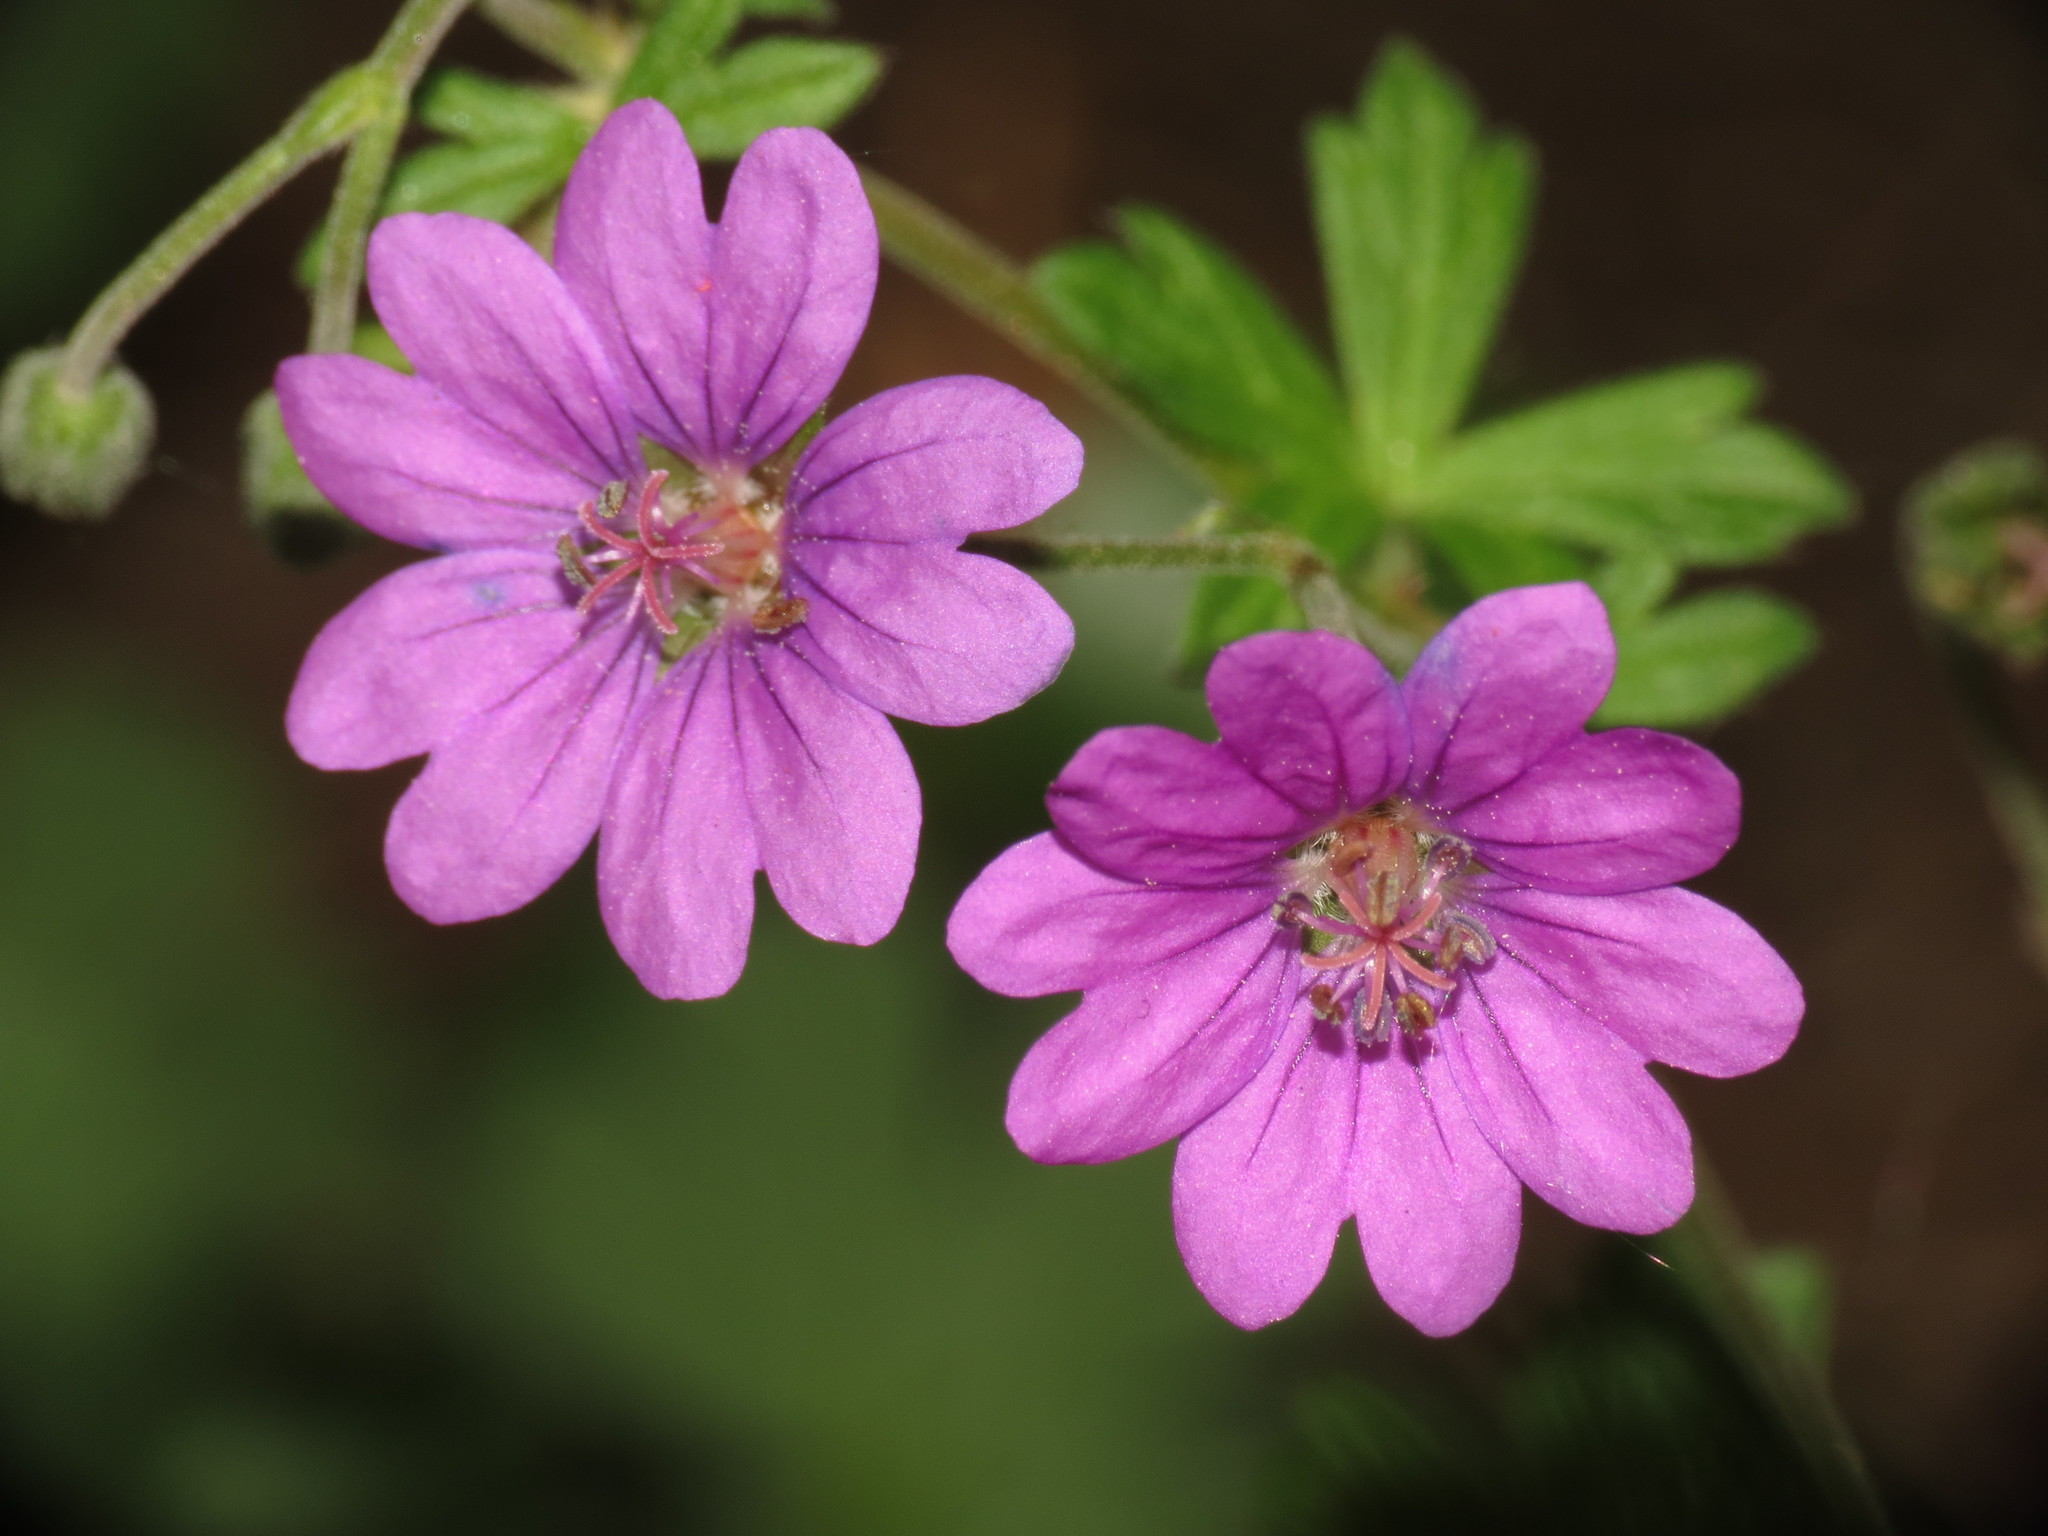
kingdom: Plantae
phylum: Tracheophyta
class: Magnoliopsida
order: Geraniales
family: Geraniaceae
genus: Geranium
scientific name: Geranium pyrenaicum
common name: Hedgerow crane's-bill
